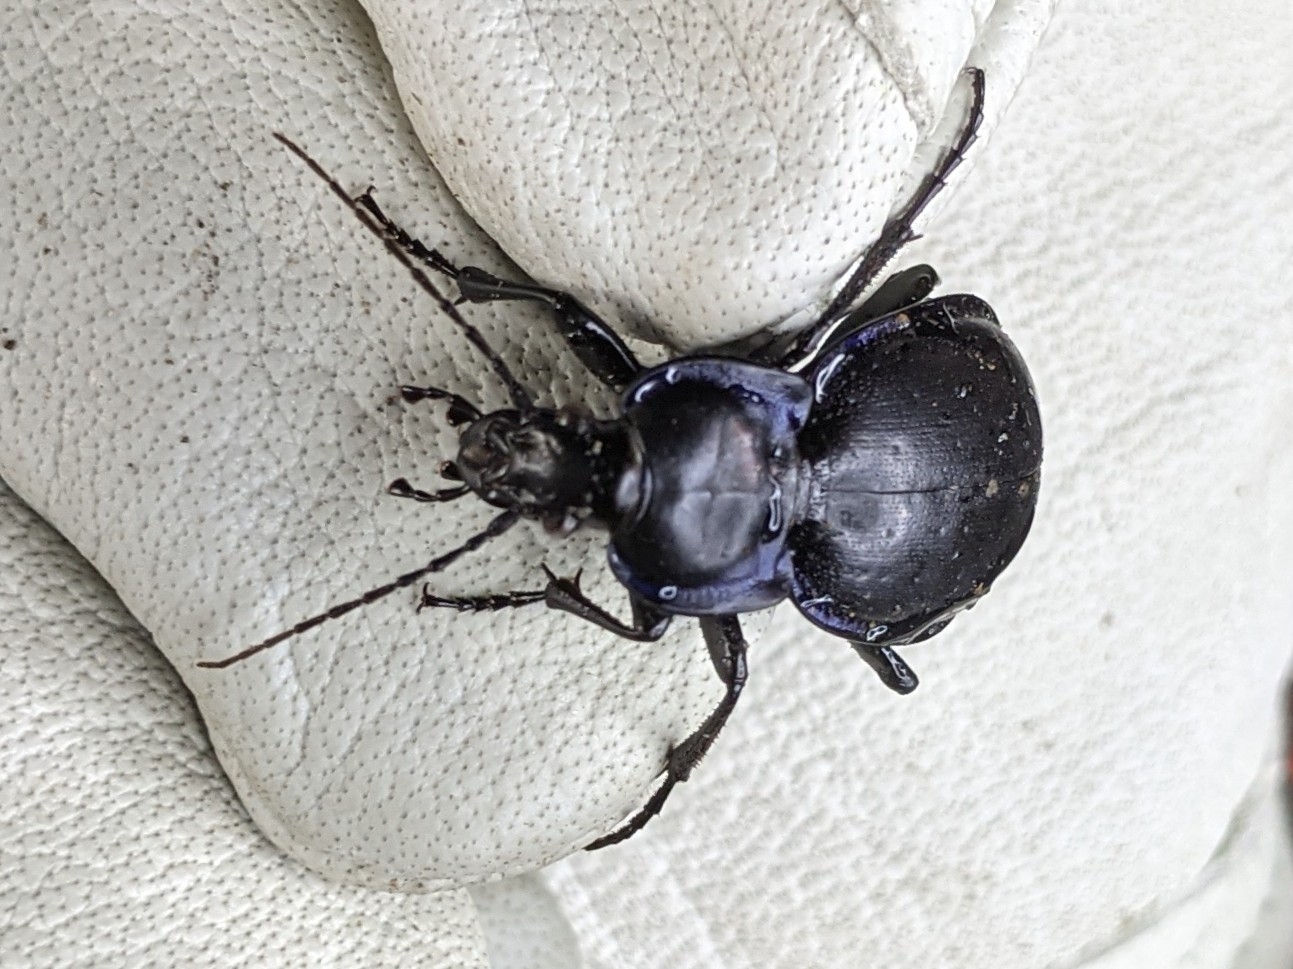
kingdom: Animalia
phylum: Arthropoda
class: Insecta
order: Coleoptera
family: Carabidae
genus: Carabus
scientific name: Carabus finitimus
